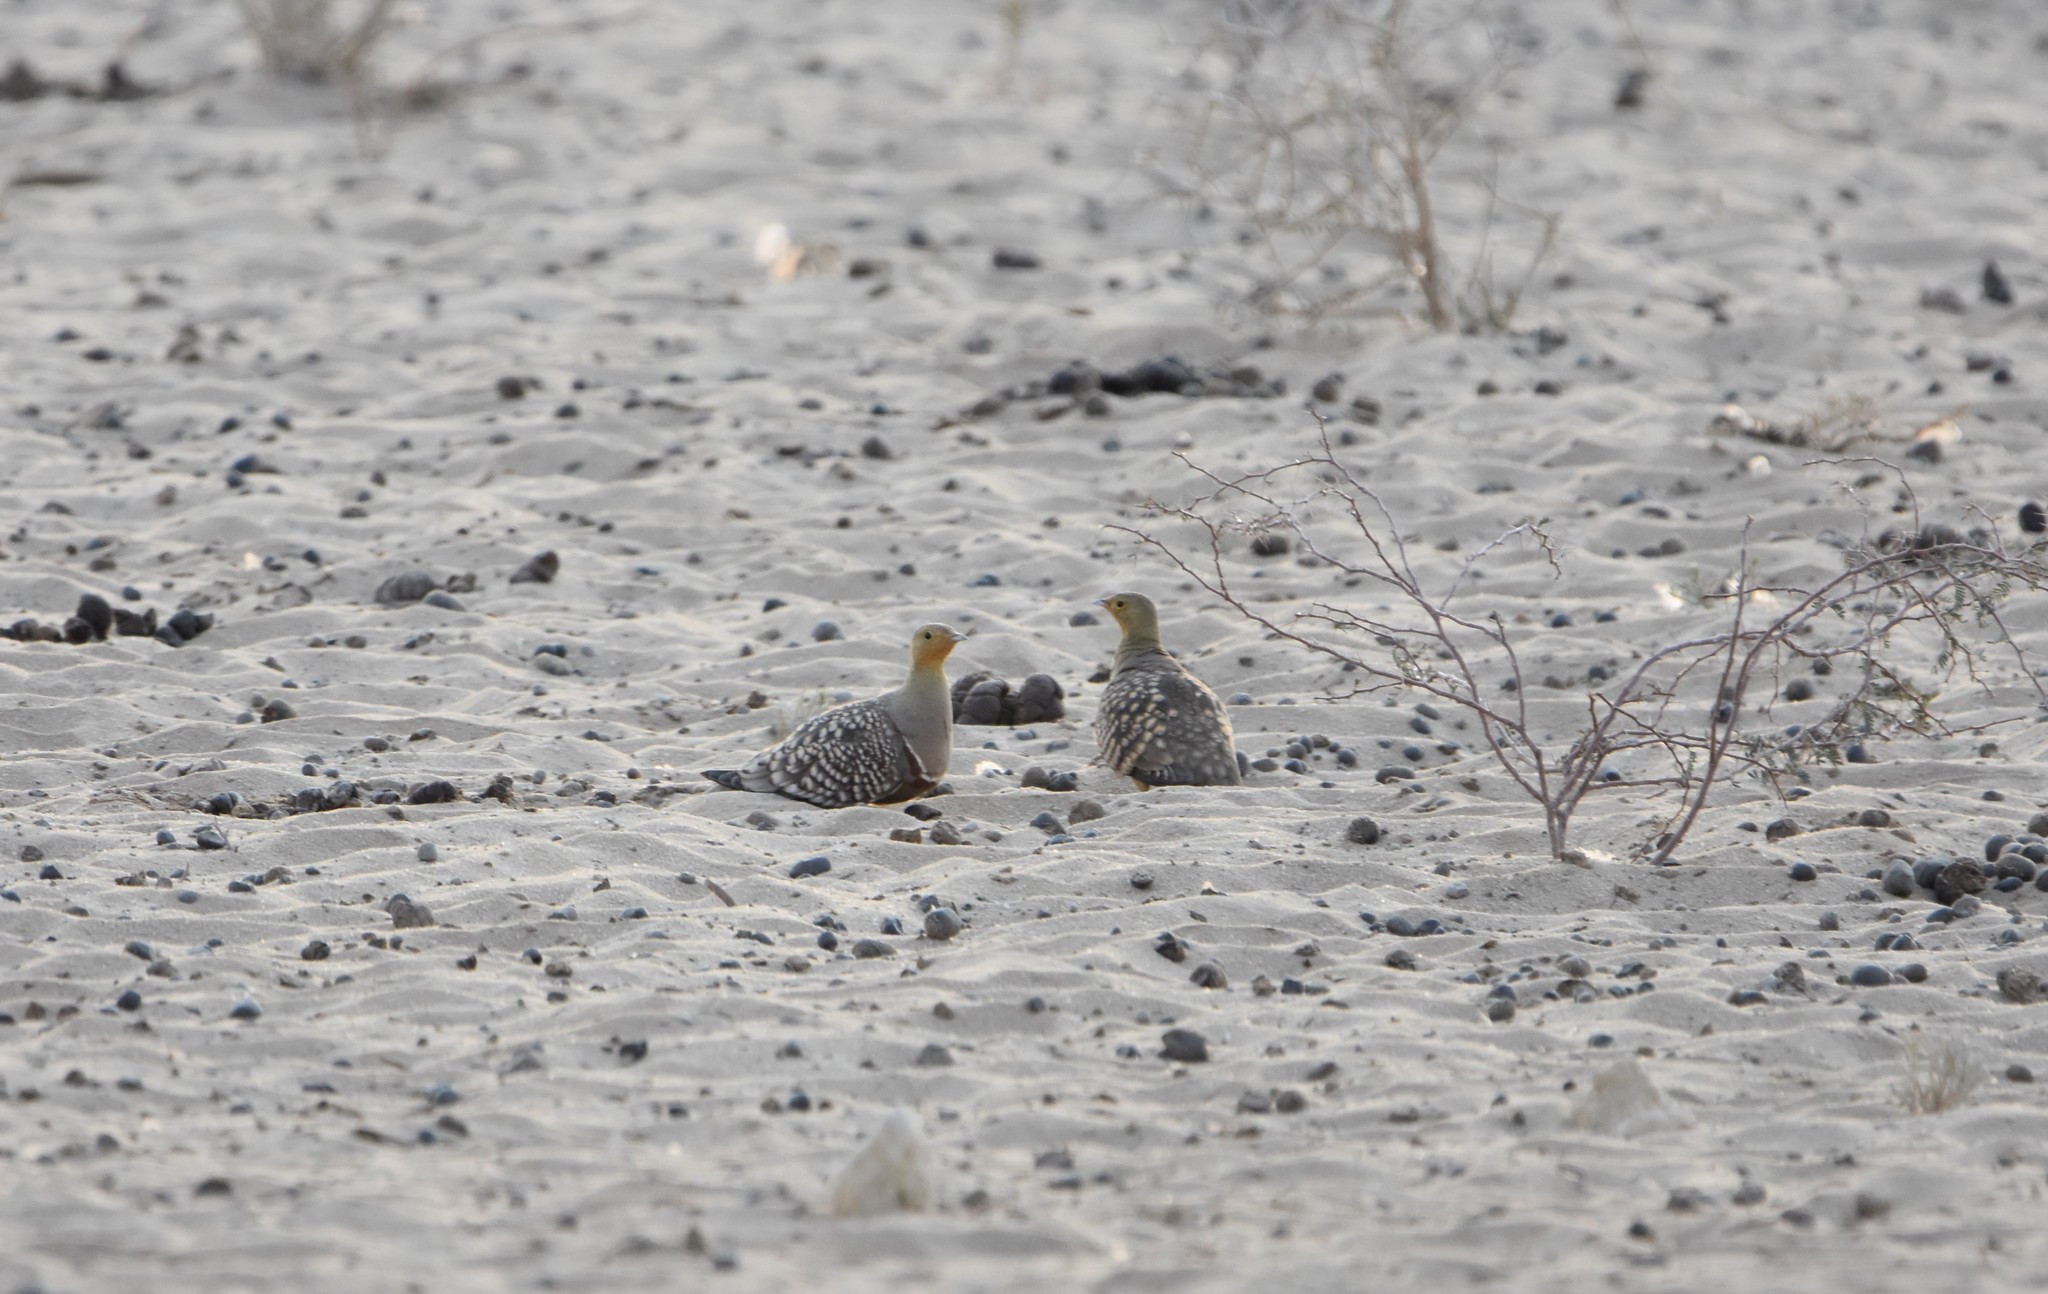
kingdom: Animalia
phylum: Chordata
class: Aves
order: Pteroclidiformes
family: Pteroclididae
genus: Pterocles
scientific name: Pterocles namaqua
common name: Namaqua sandgrouse
